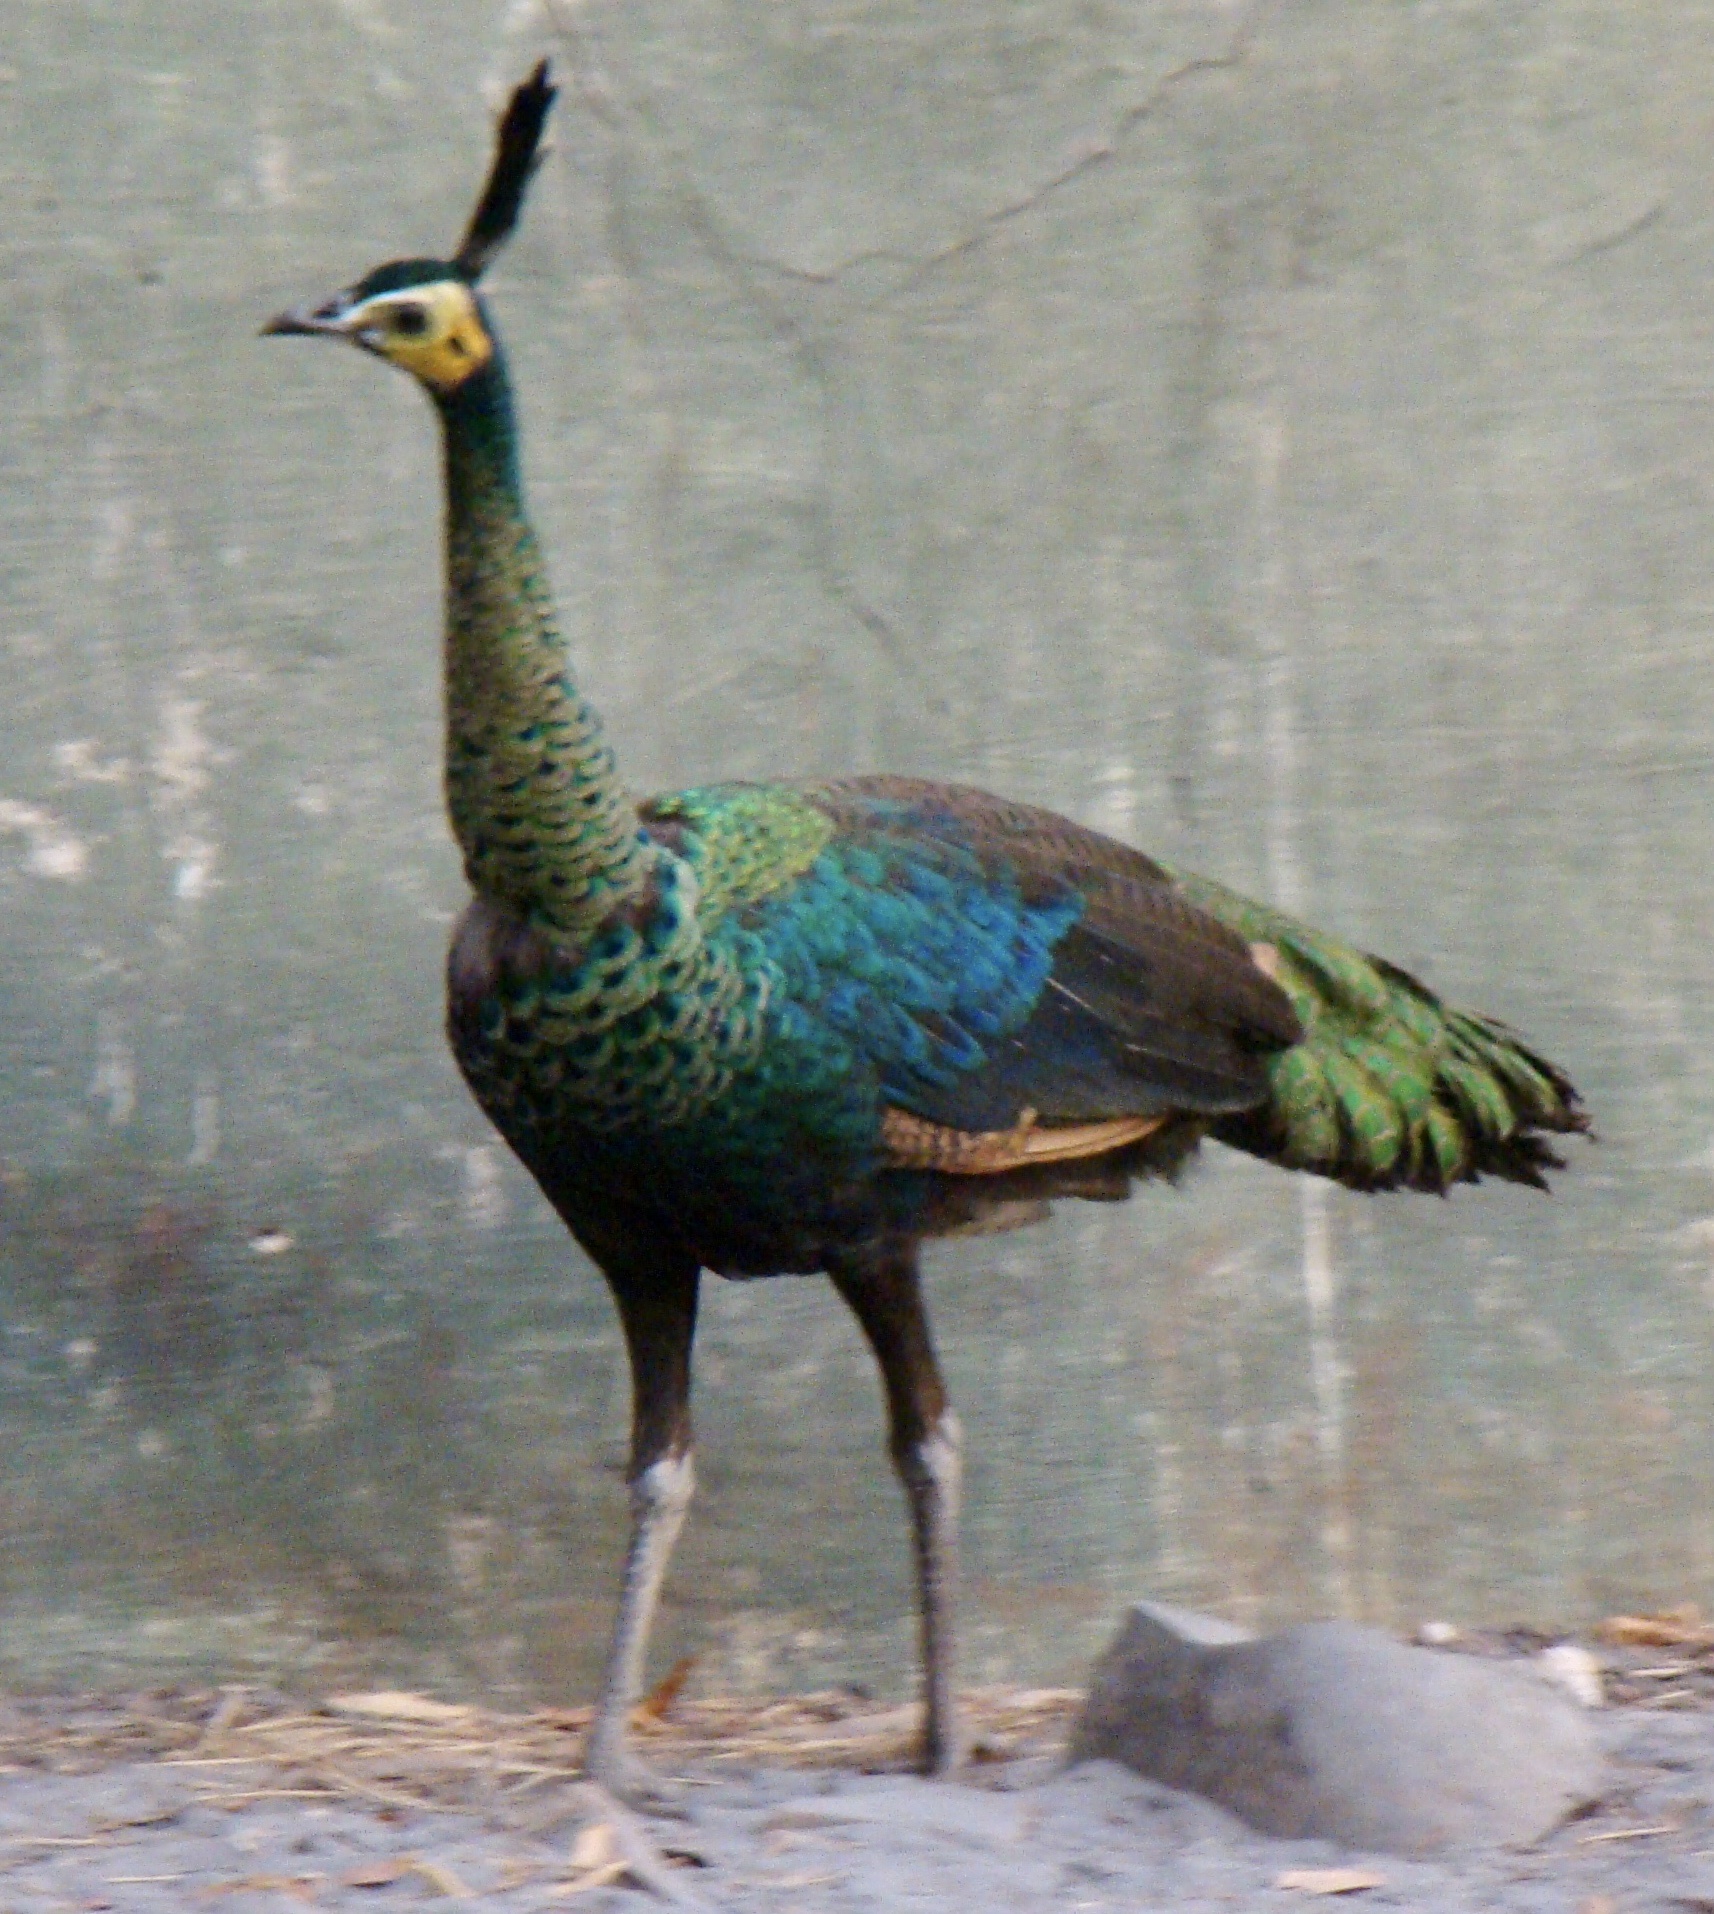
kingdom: Animalia
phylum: Chordata
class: Aves
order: Galliformes
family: Phasianidae
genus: Pavo
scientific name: Pavo muticus
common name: Green peafowl
